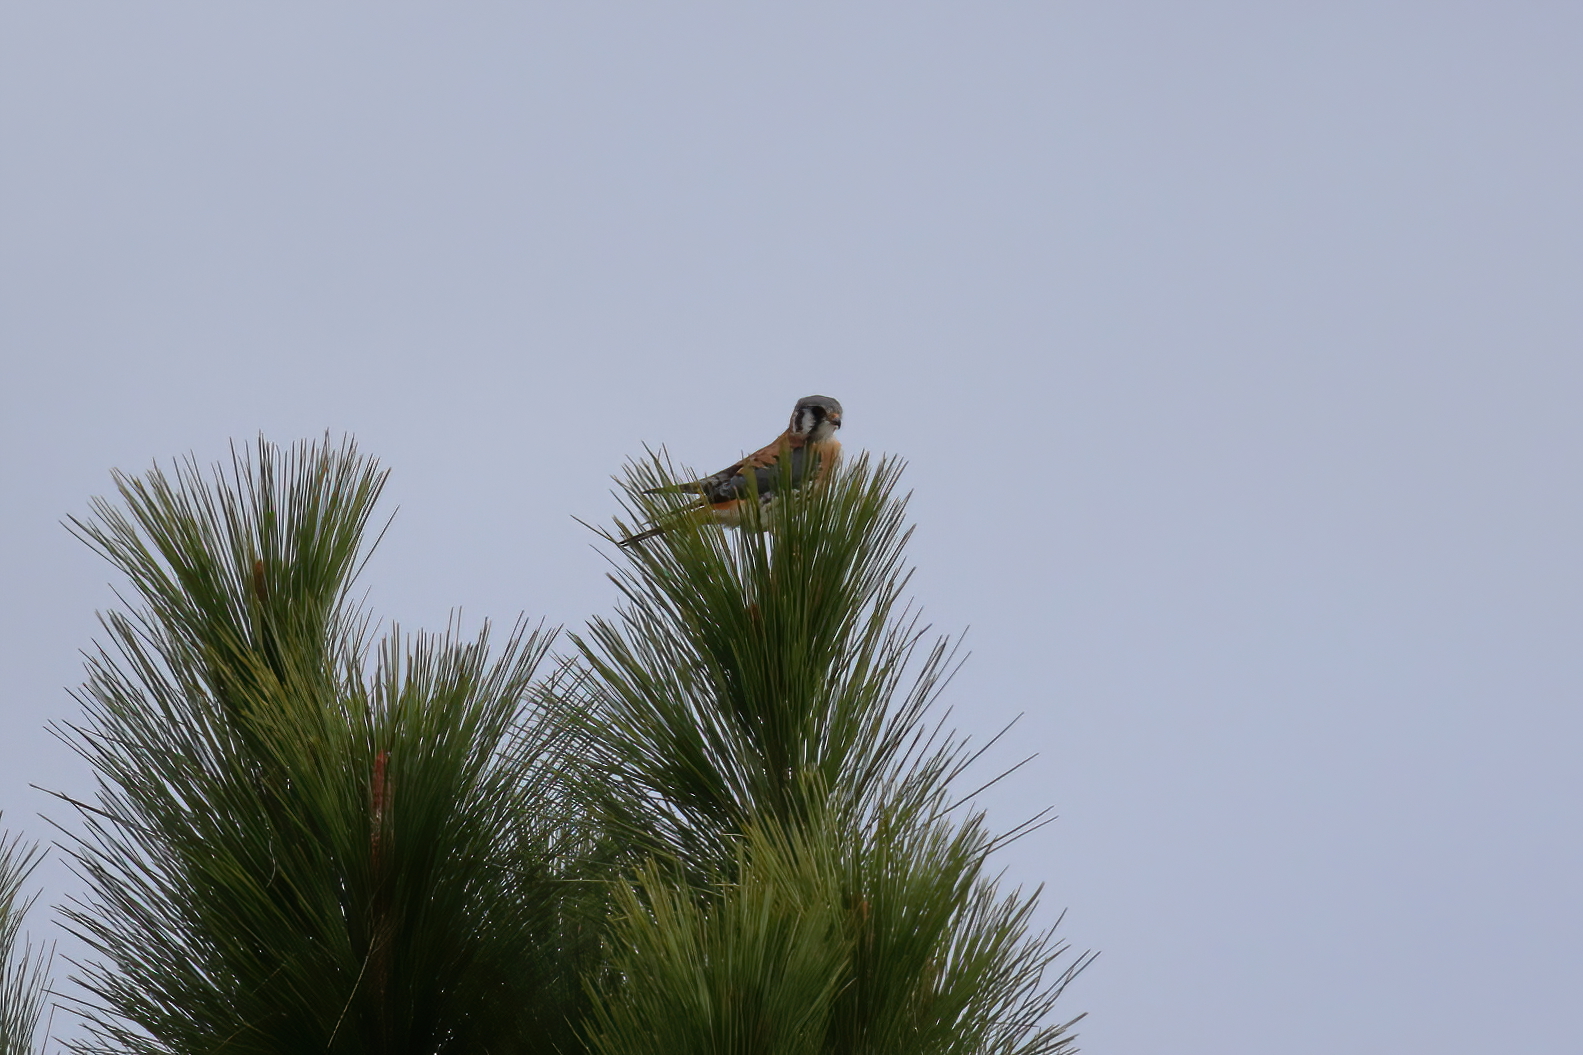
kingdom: Animalia
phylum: Chordata
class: Aves
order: Falconiformes
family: Falconidae
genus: Falco
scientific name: Falco sparverius
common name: American kestrel
